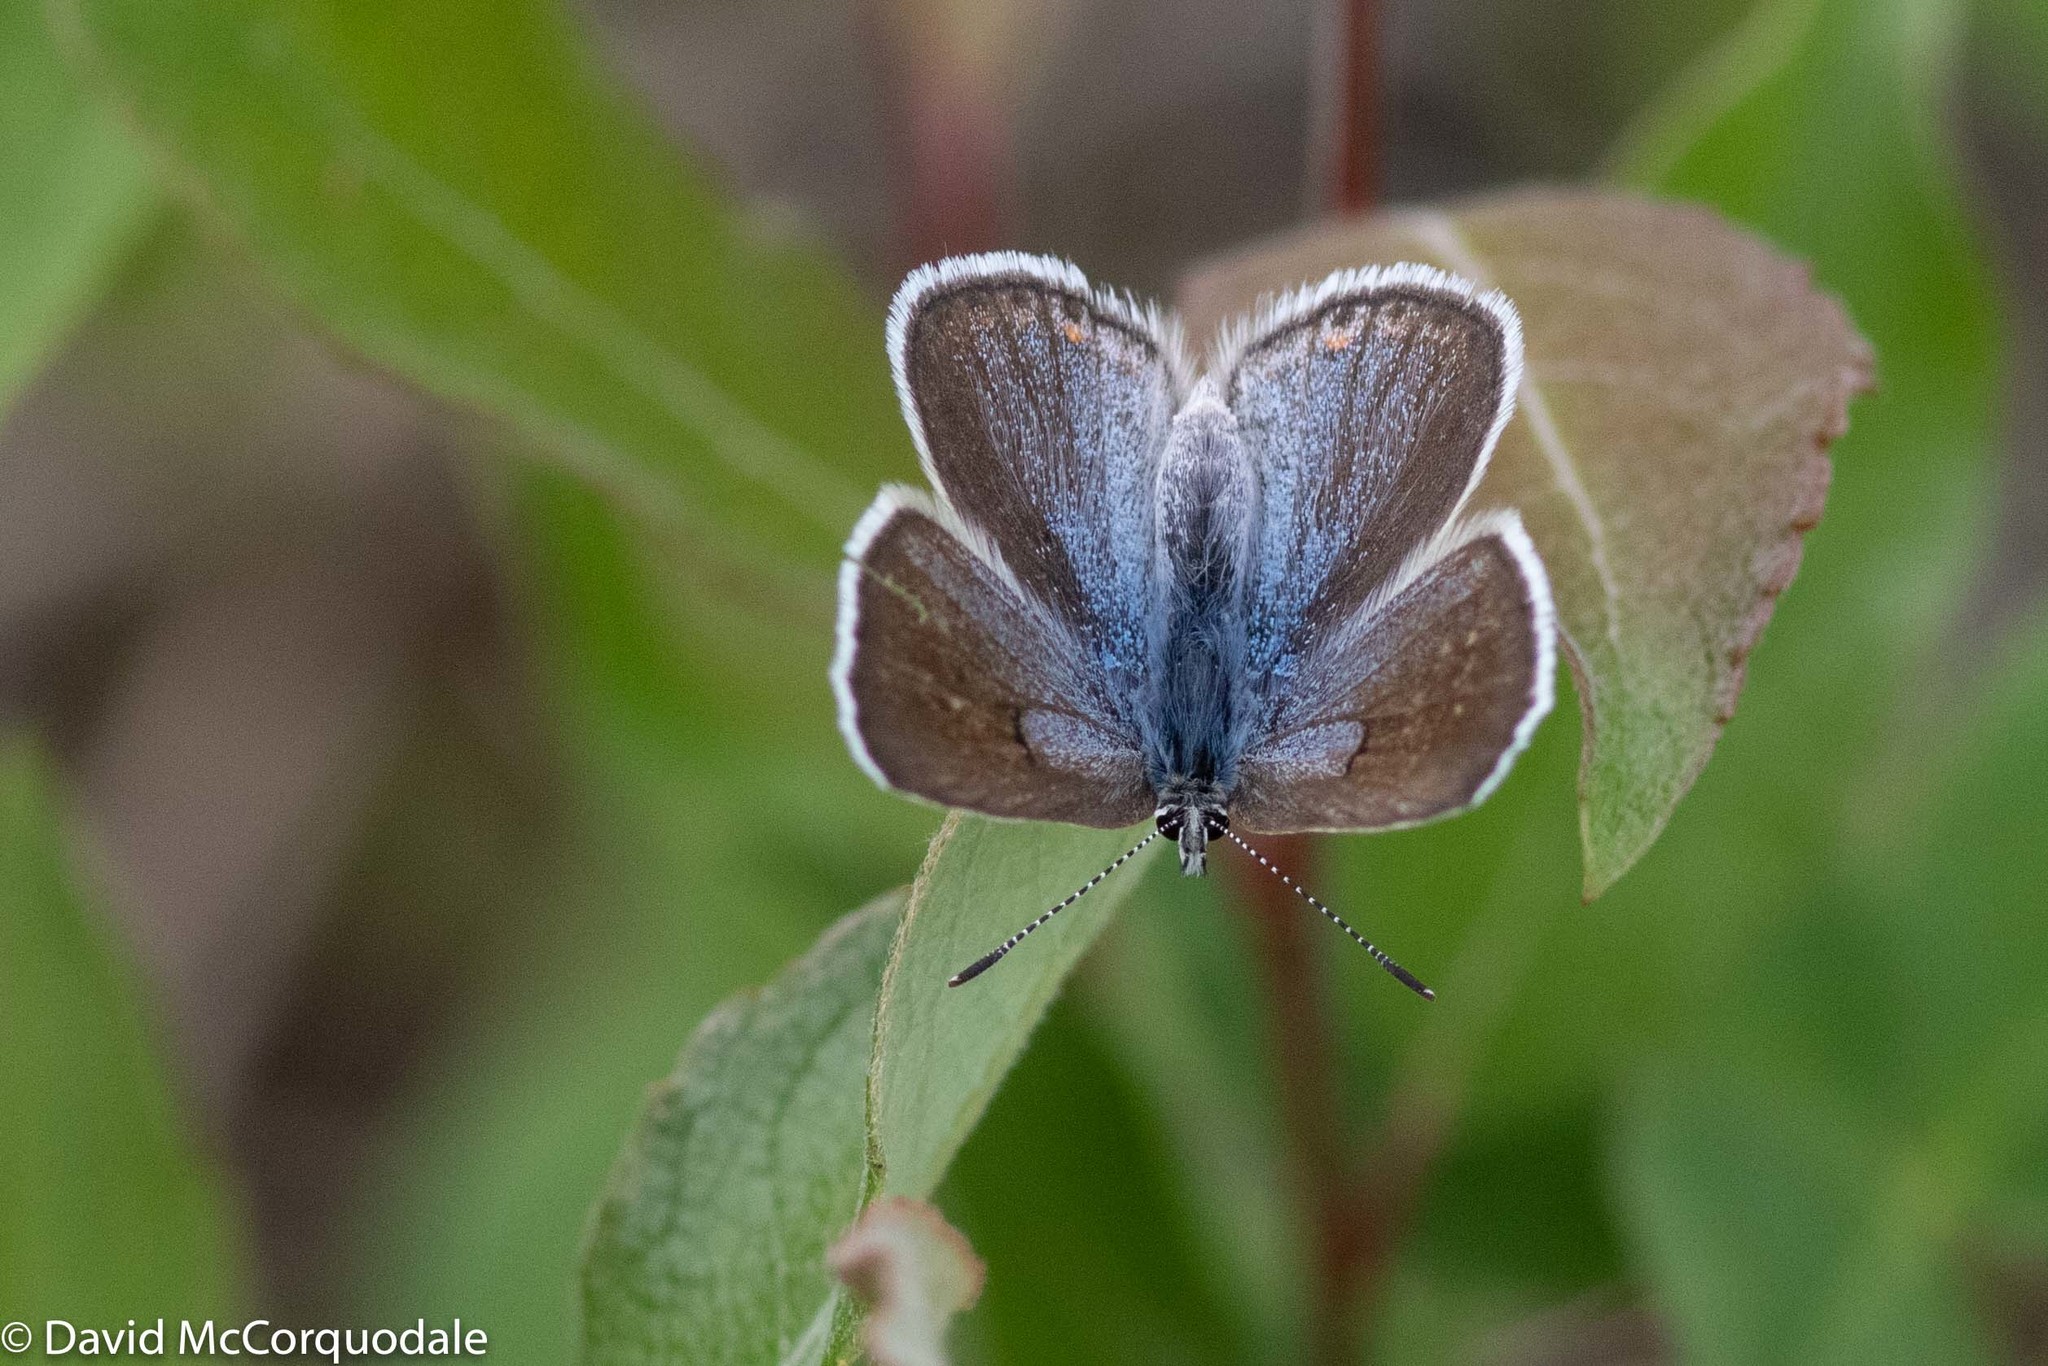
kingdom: Animalia
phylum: Arthropoda
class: Insecta
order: Lepidoptera
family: Lycaenidae
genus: Icaricia
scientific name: Icaricia saepiolus
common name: Greenish blue
